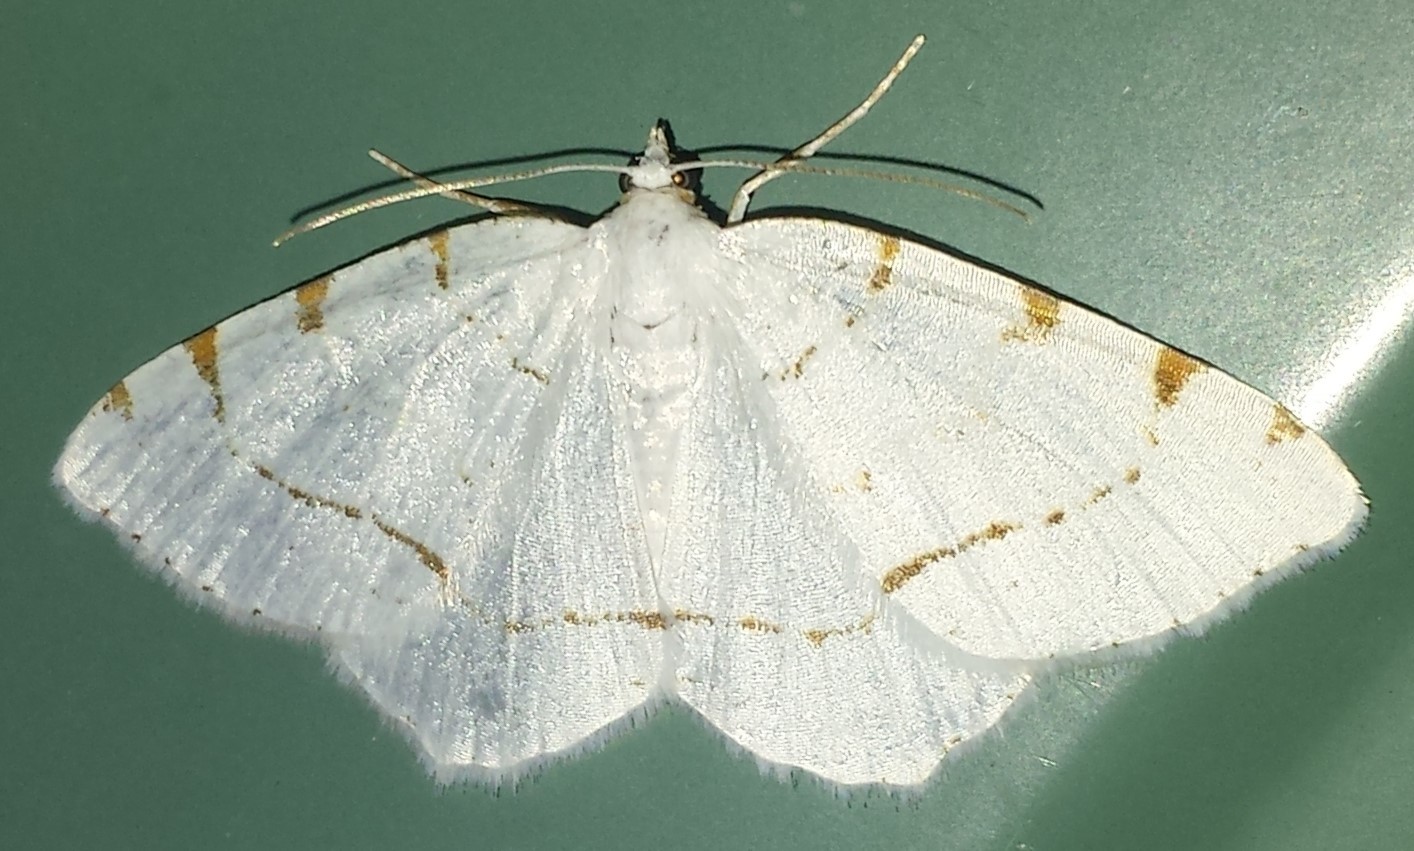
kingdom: Animalia
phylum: Arthropoda
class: Insecta
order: Lepidoptera
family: Geometridae
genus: Macaria
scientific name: Macaria pustularia
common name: Lesser maple spanworm moth
